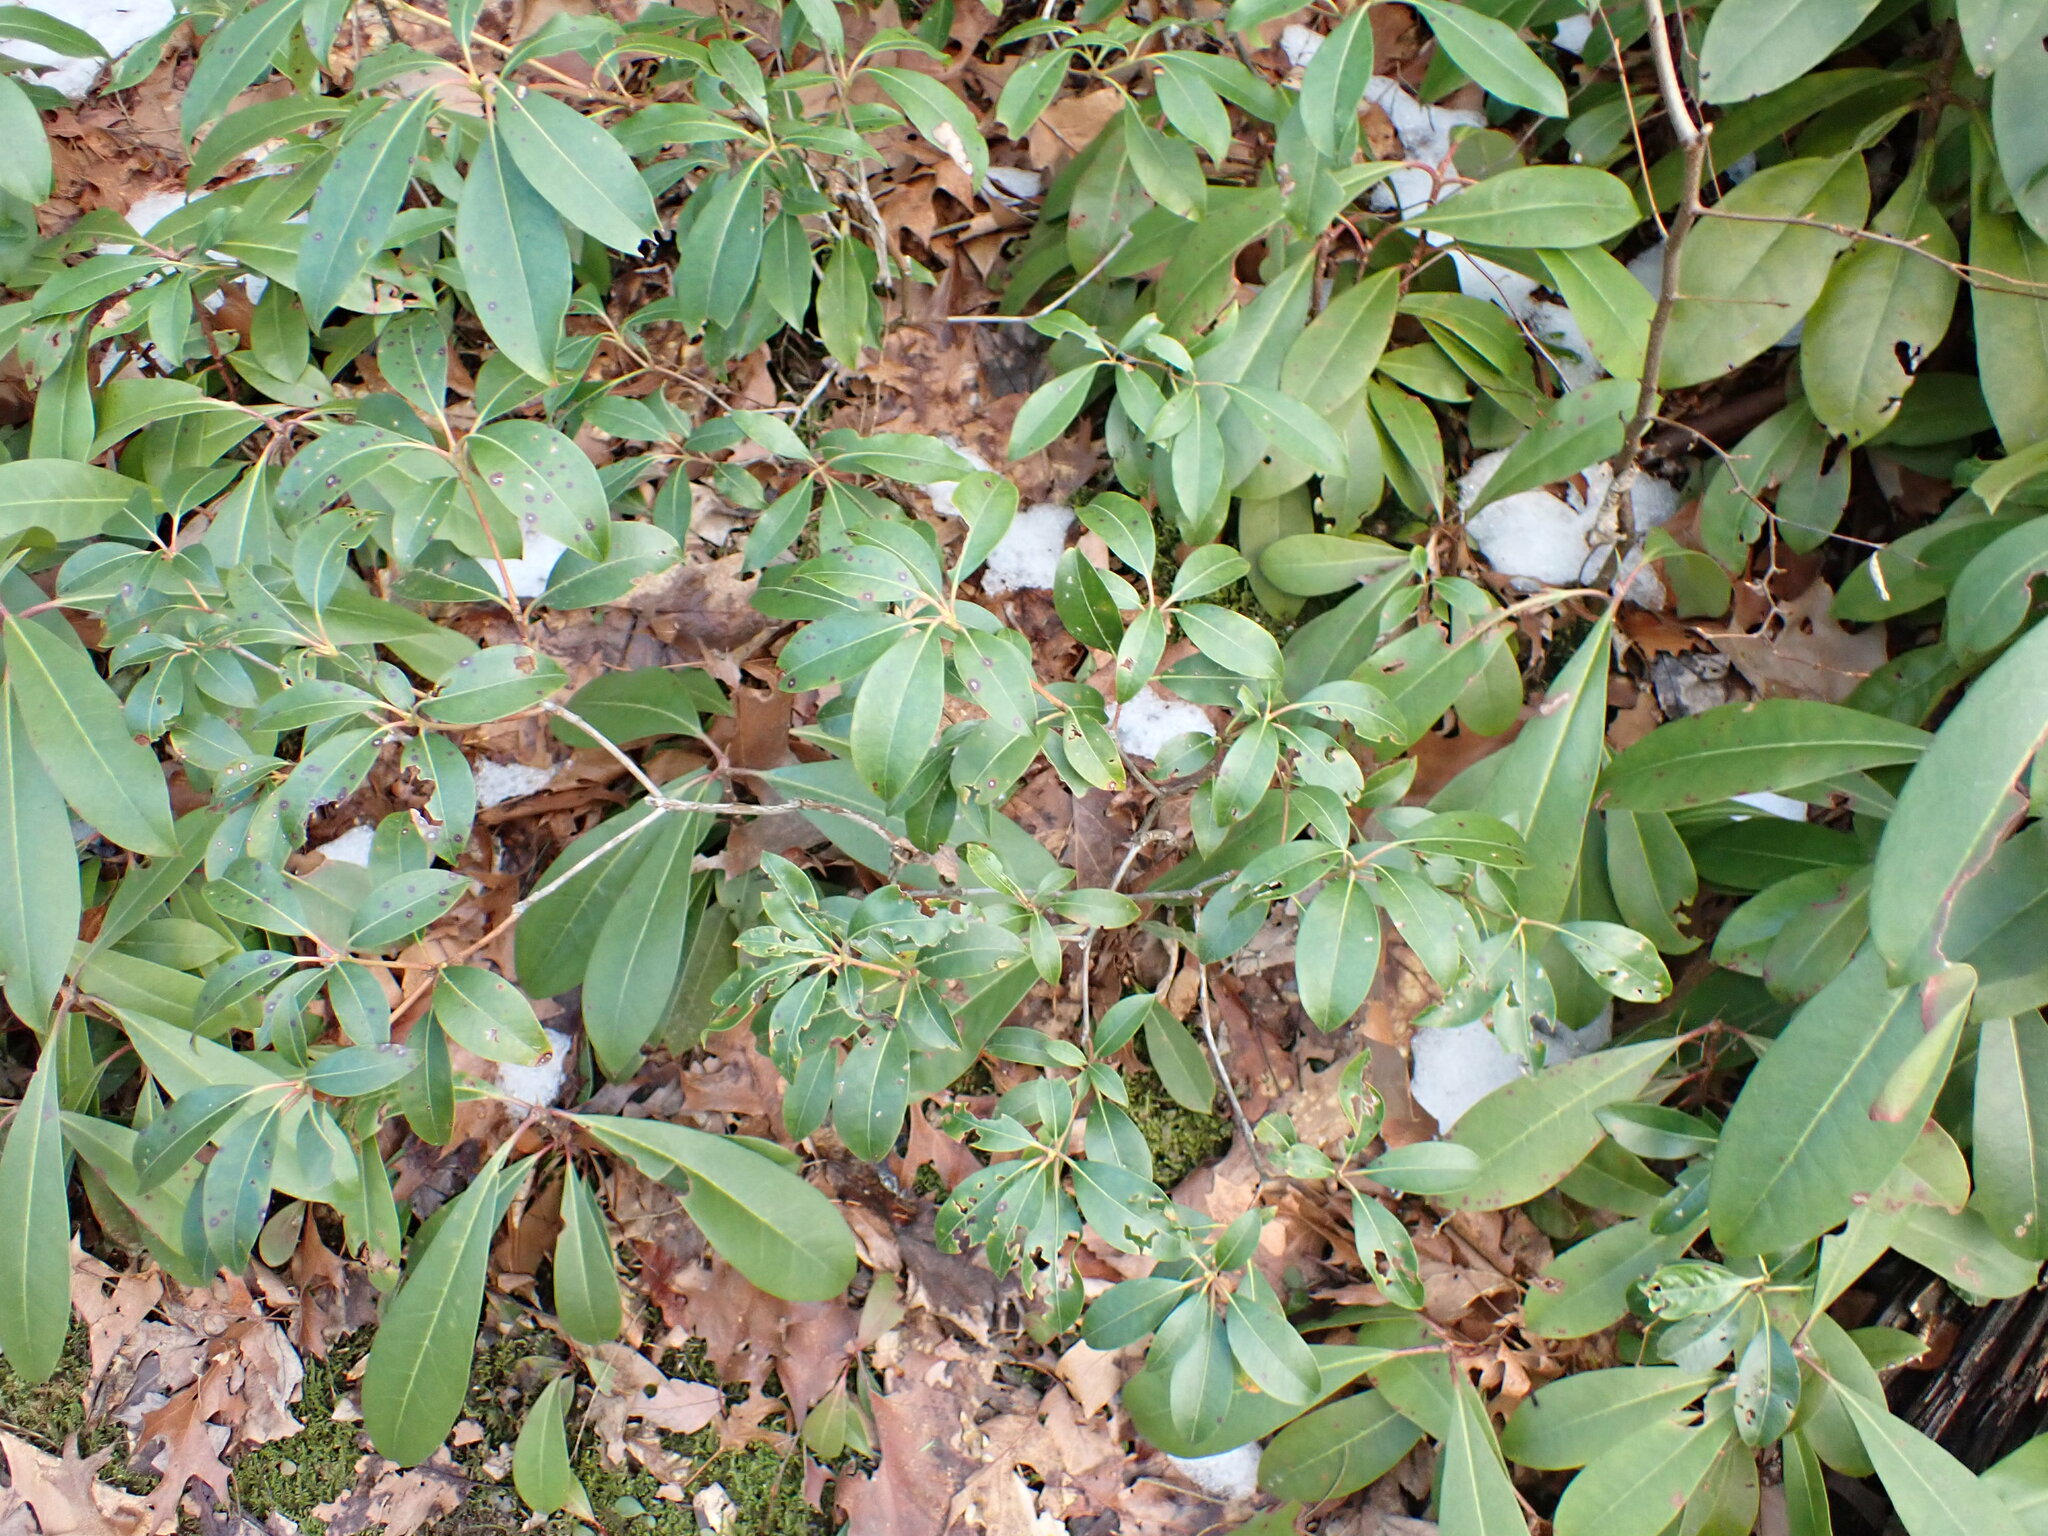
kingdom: Plantae
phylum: Tracheophyta
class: Magnoliopsida
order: Ericales
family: Ericaceae
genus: Kalmia
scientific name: Kalmia latifolia
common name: Mountain-laurel
